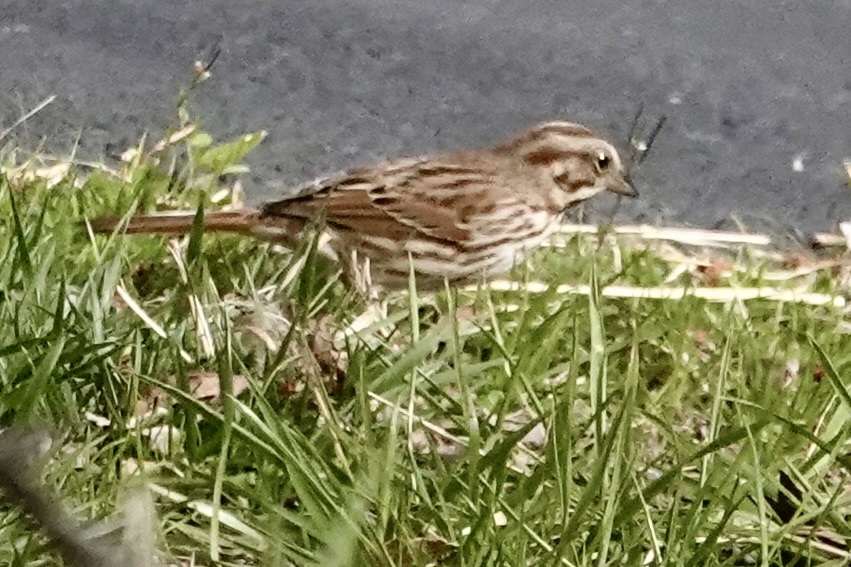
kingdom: Animalia
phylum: Chordata
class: Aves
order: Passeriformes
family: Passerellidae
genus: Melospiza
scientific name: Melospiza melodia
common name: Song sparrow
